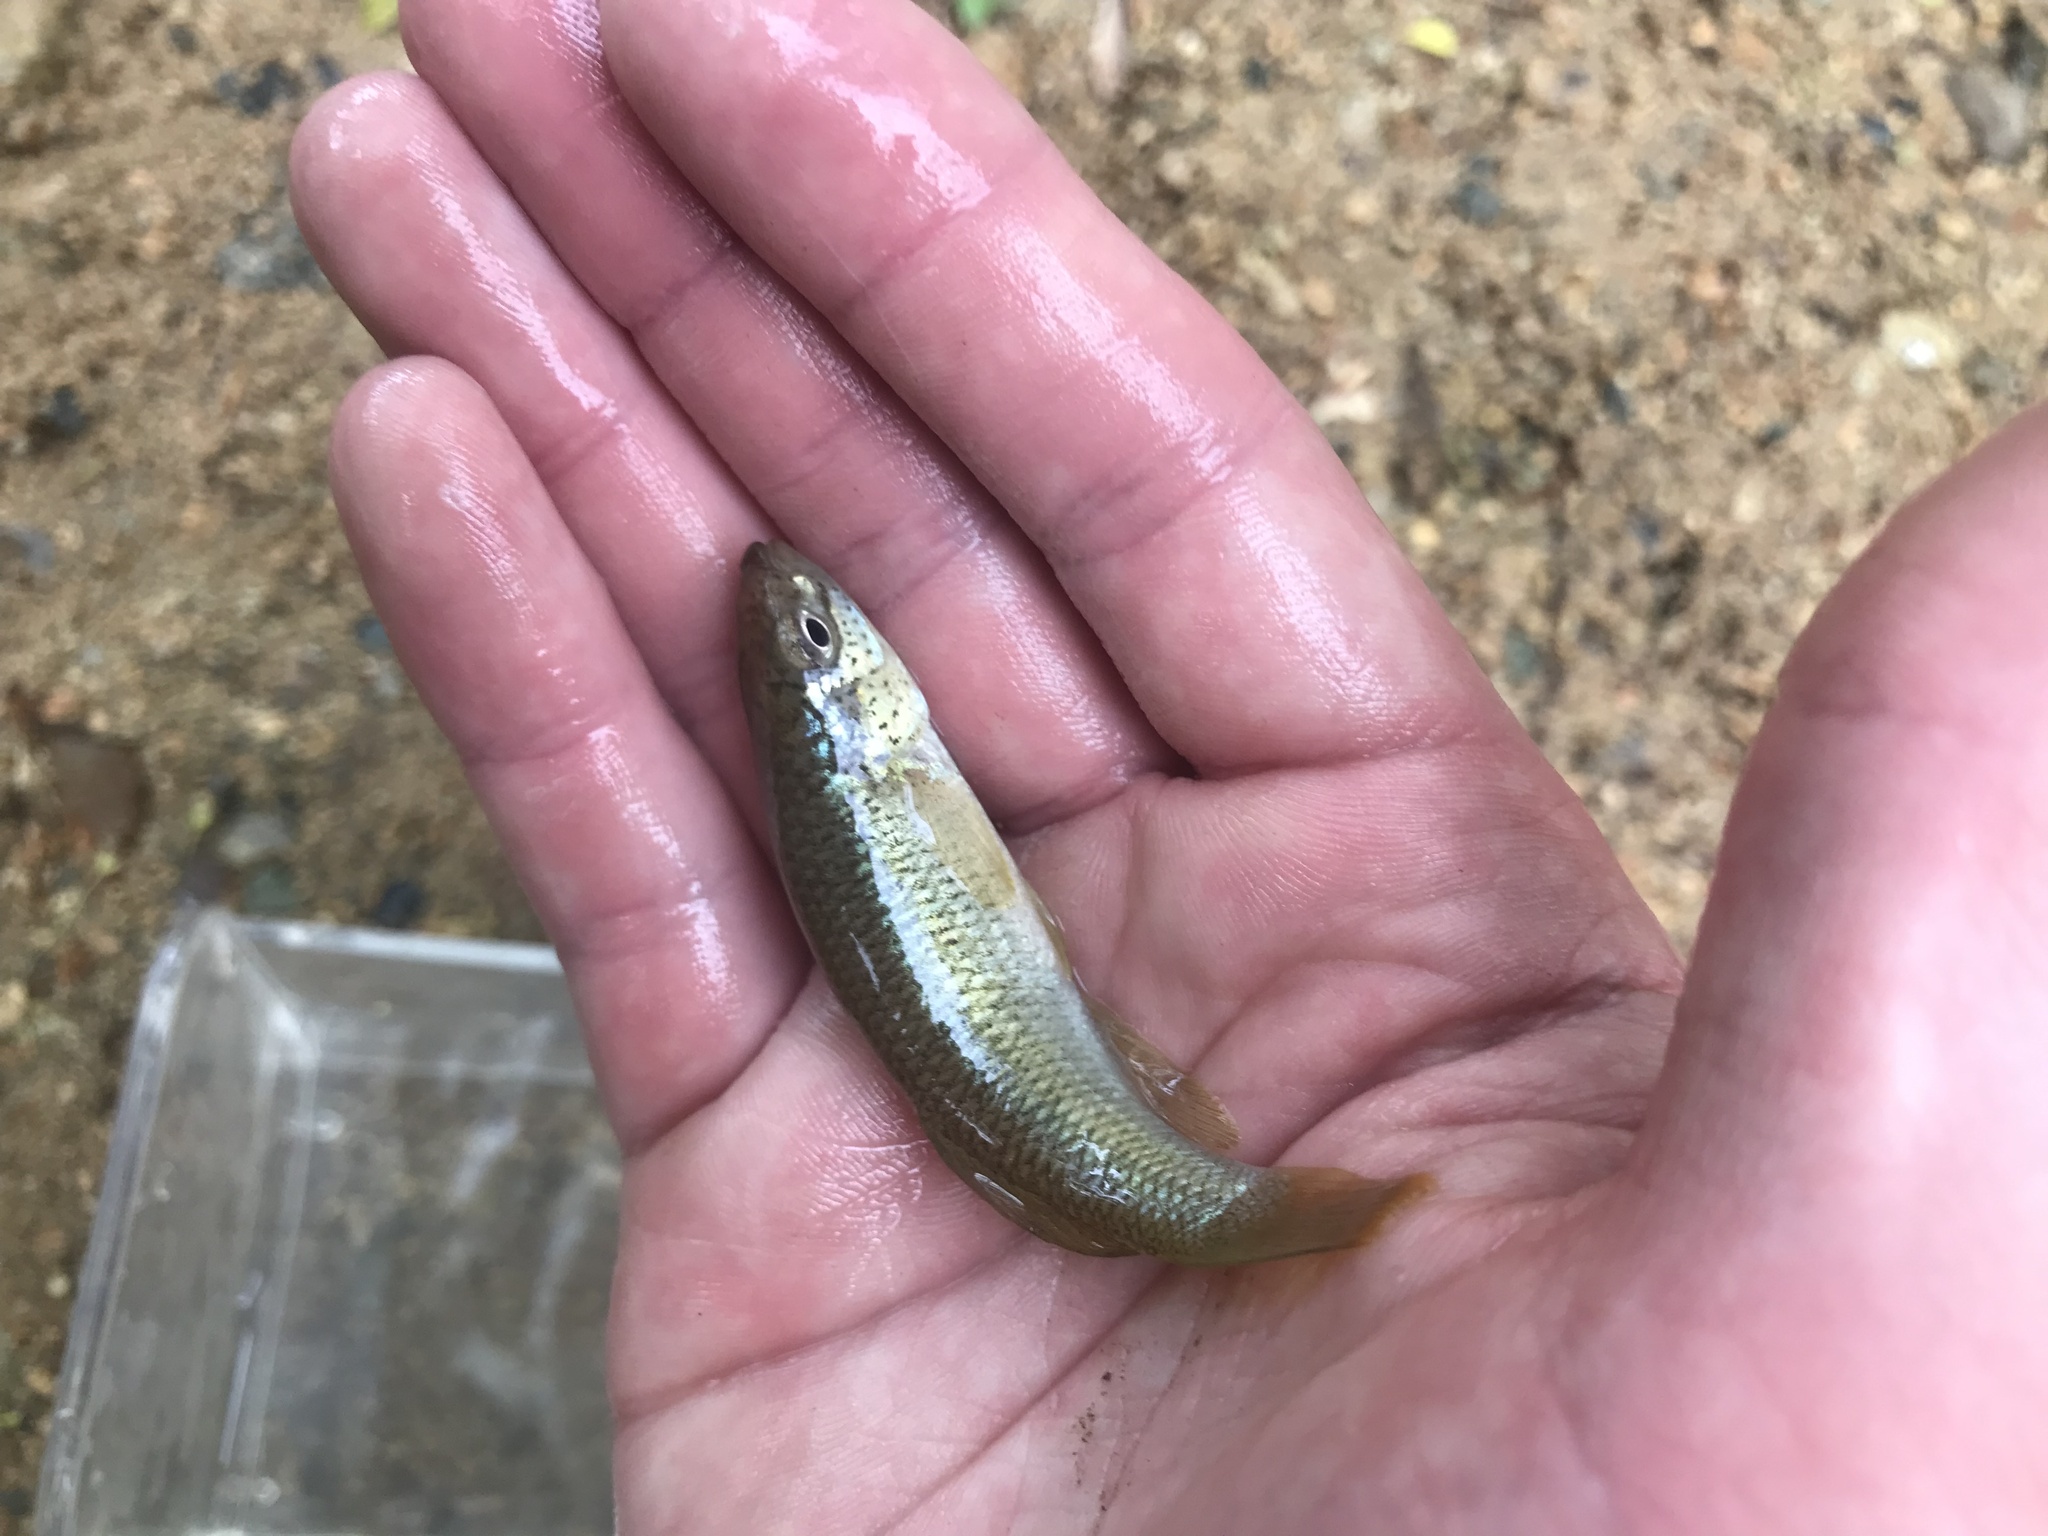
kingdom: Animalia
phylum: Chordata
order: Cyprinodontiformes
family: Fundulidae
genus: Fundulus
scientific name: Fundulus rathbuni
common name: Speckled killifish
